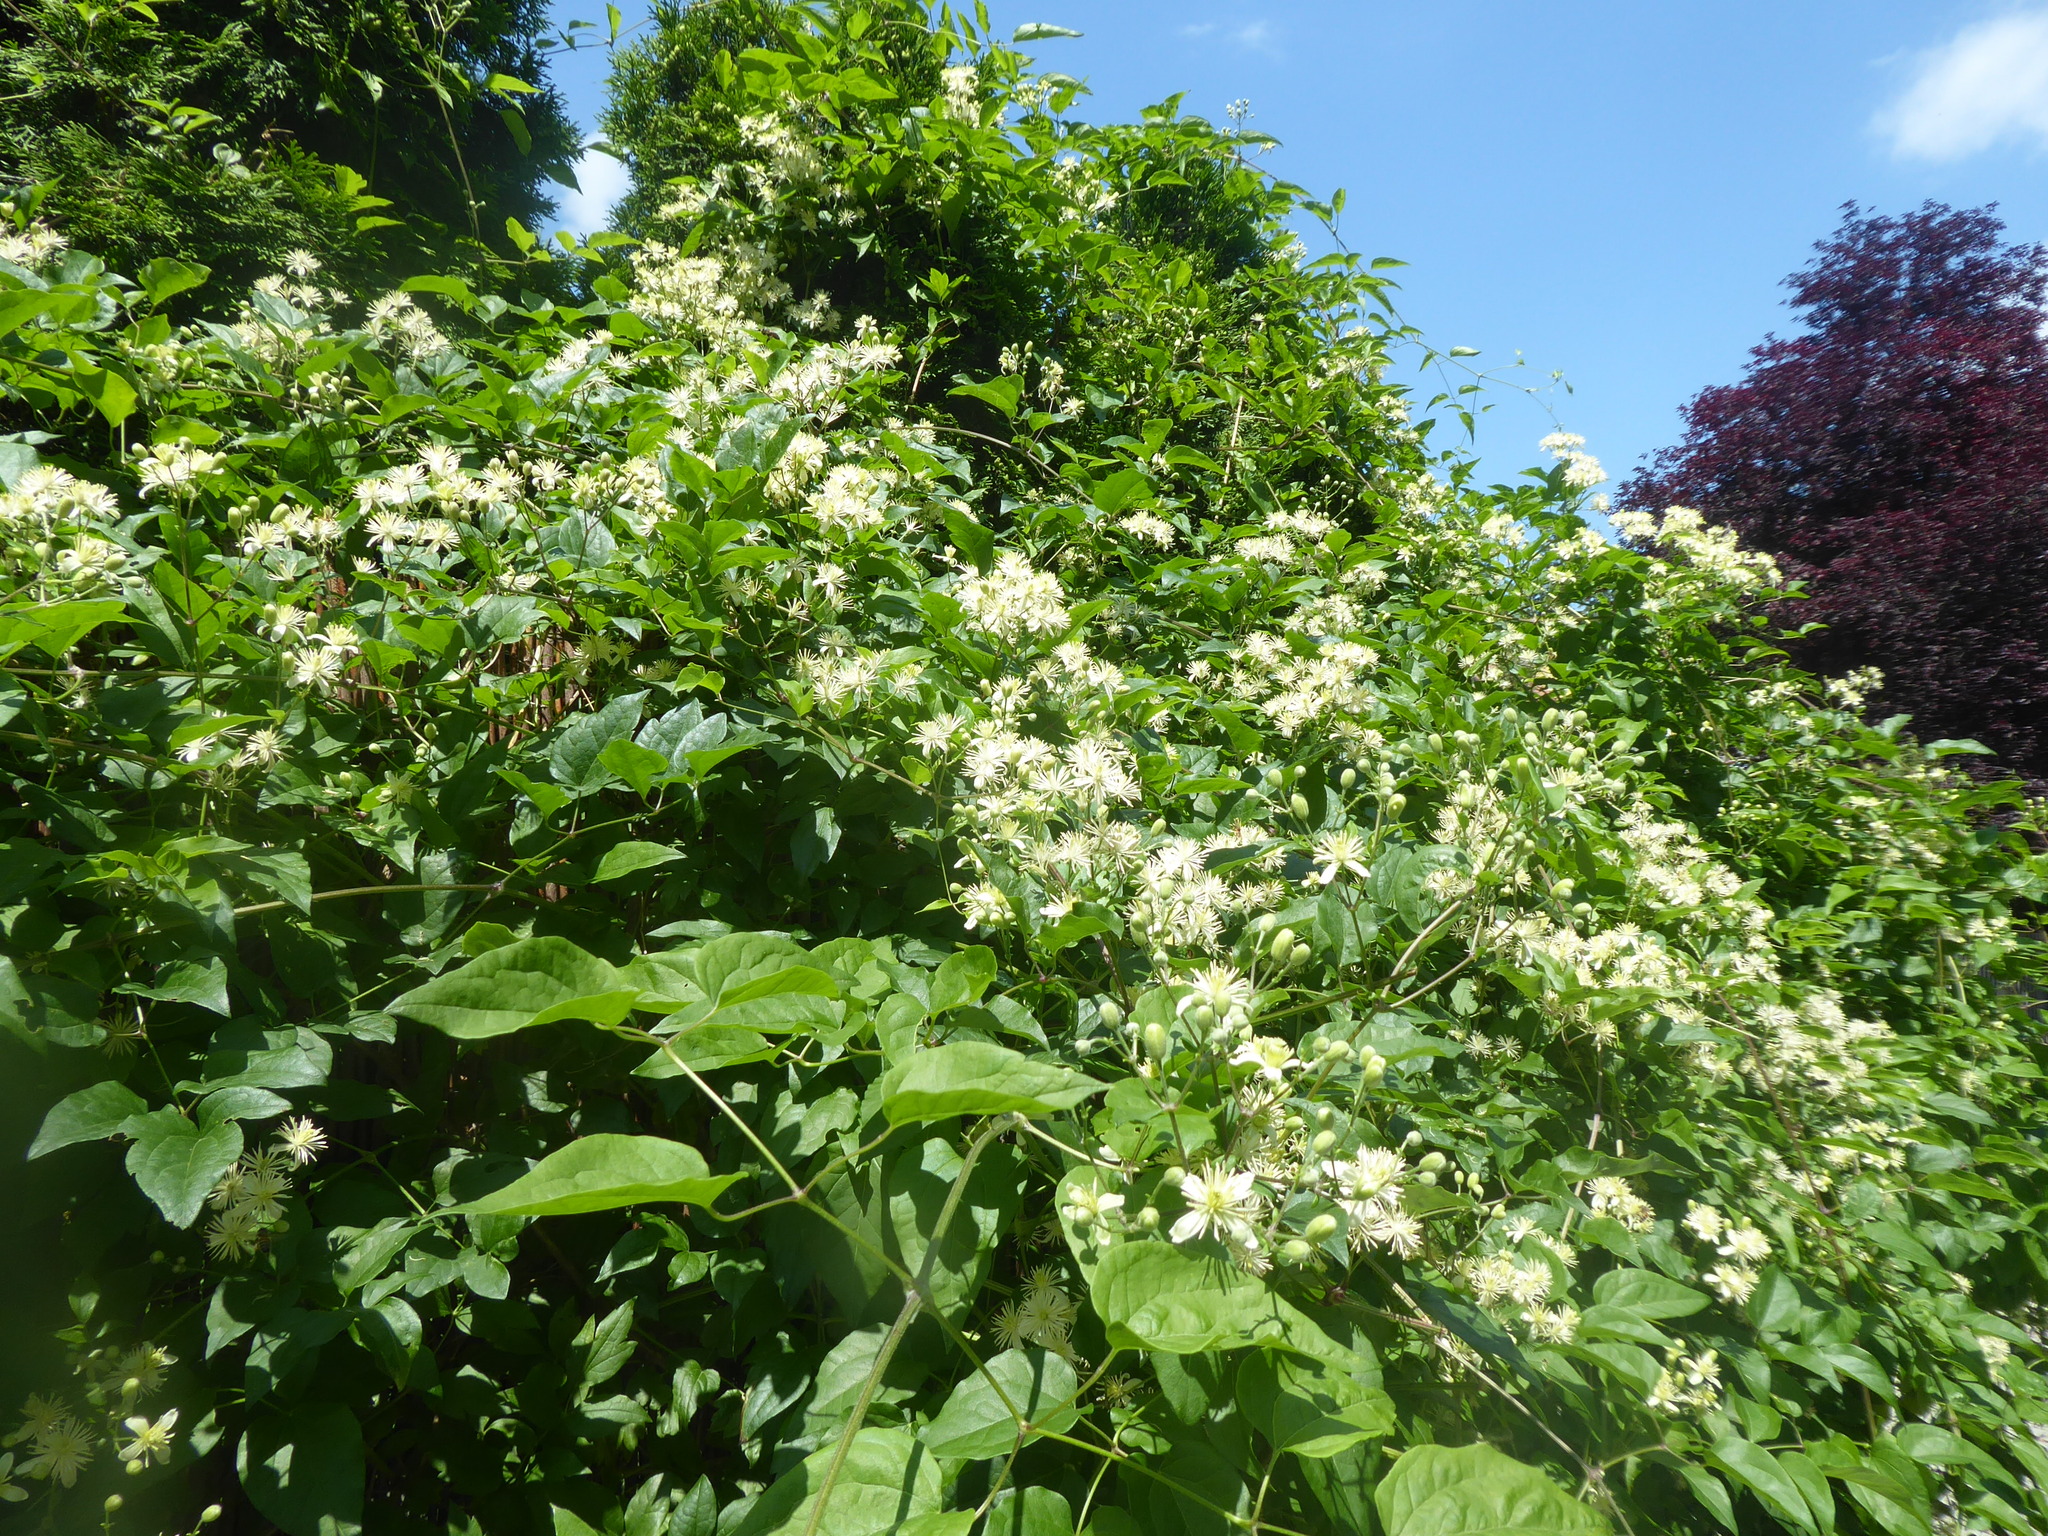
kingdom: Plantae
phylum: Tracheophyta
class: Magnoliopsida
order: Ranunculales
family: Ranunculaceae
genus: Clematis
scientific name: Clematis vitalba
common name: Evergreen clematis
